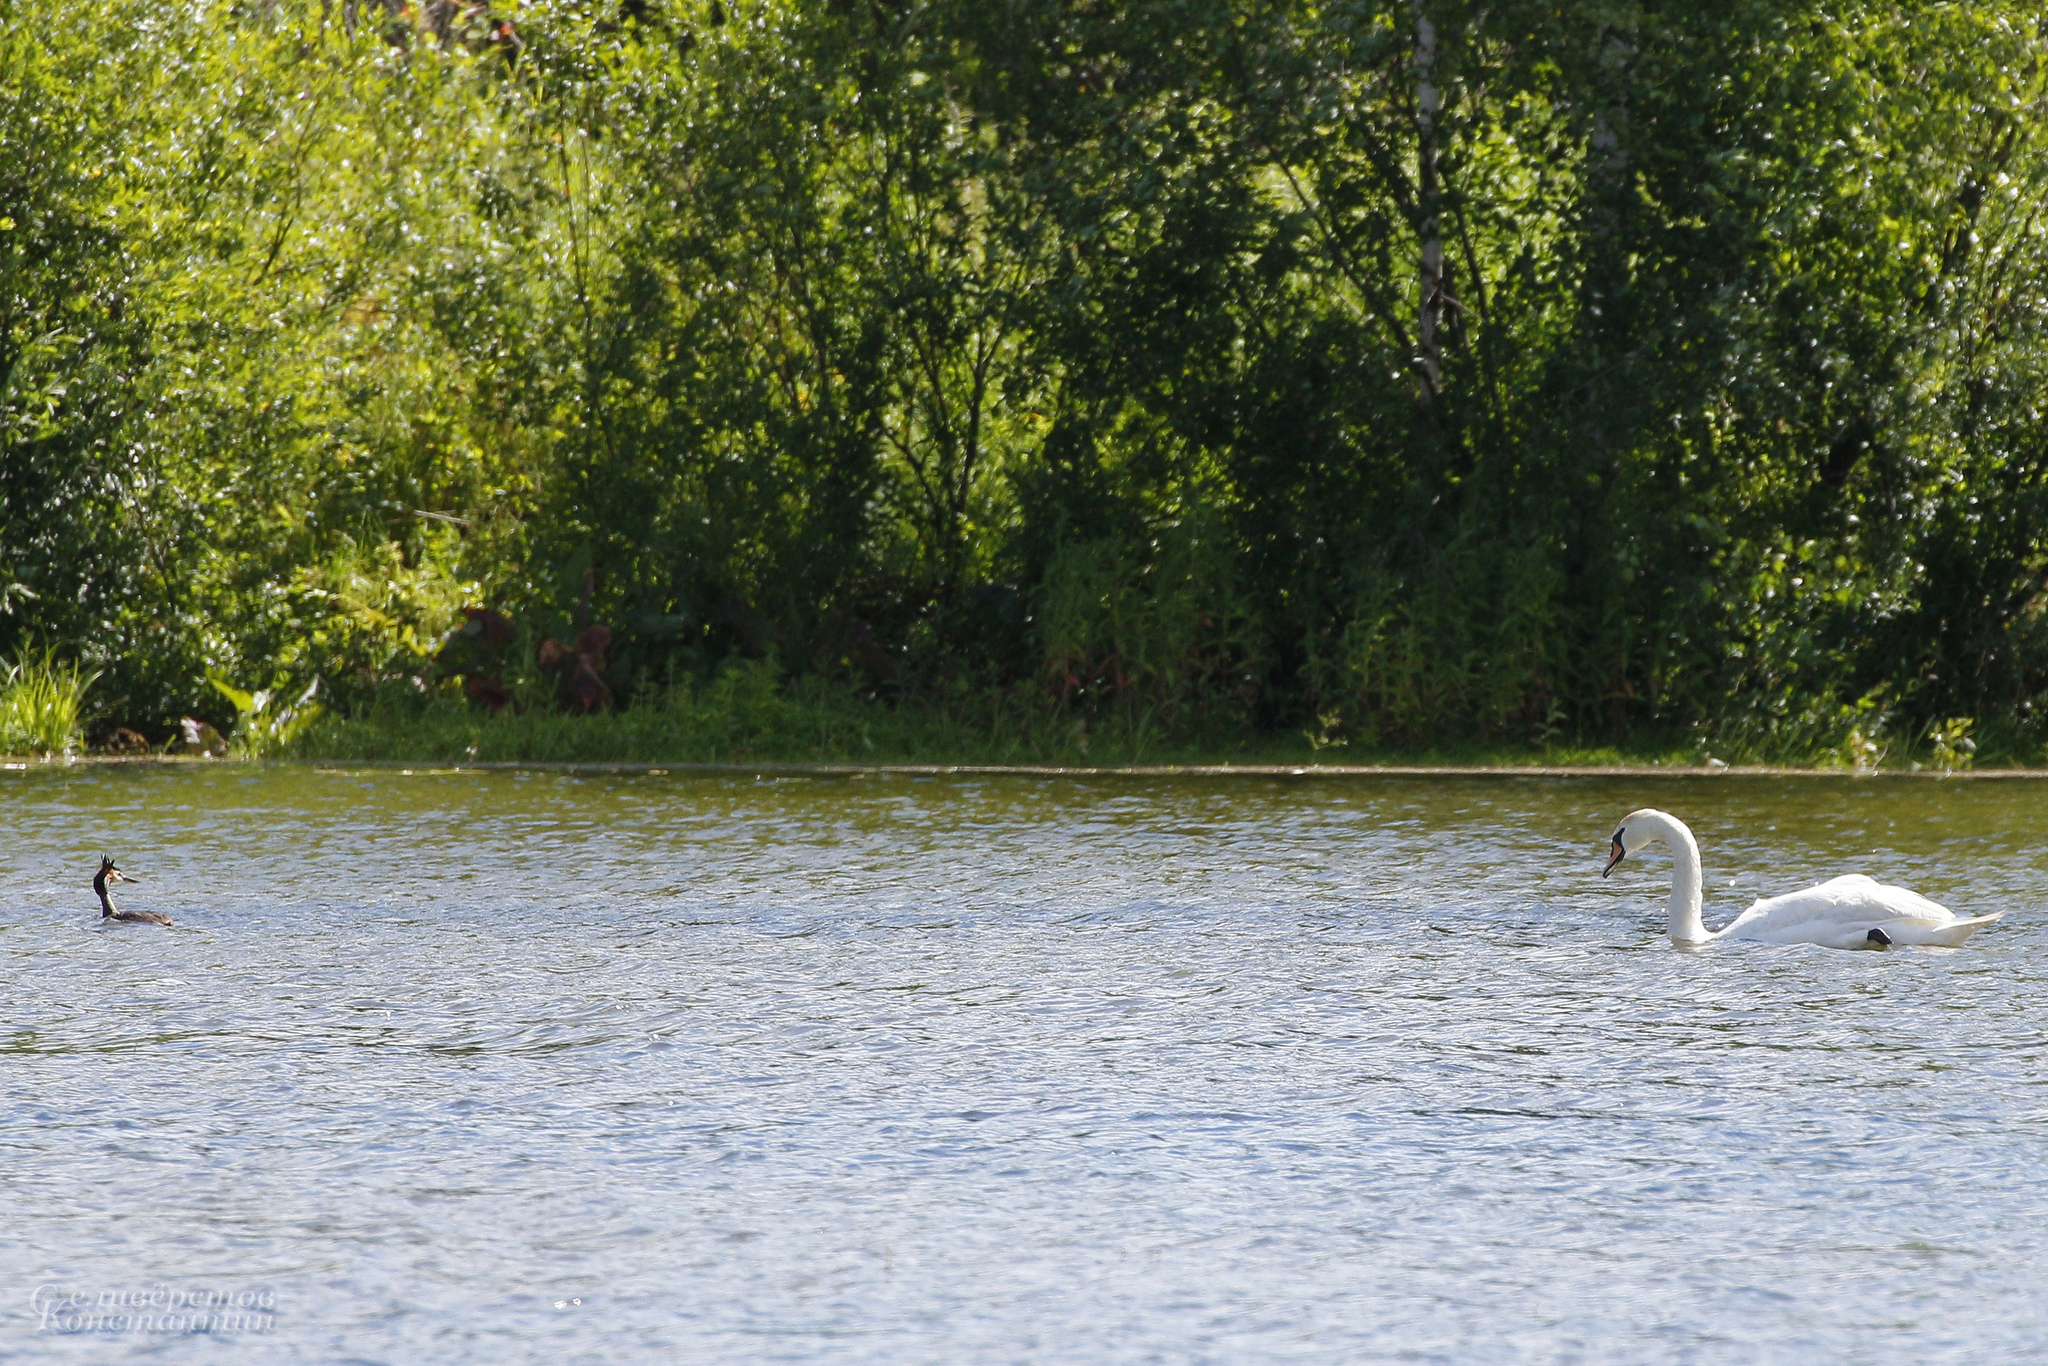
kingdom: Animalia
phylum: Chordata
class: Aves
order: Anseriformes
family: Anatidae
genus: Cygnus
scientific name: Cygnus olor
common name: Mute swan
